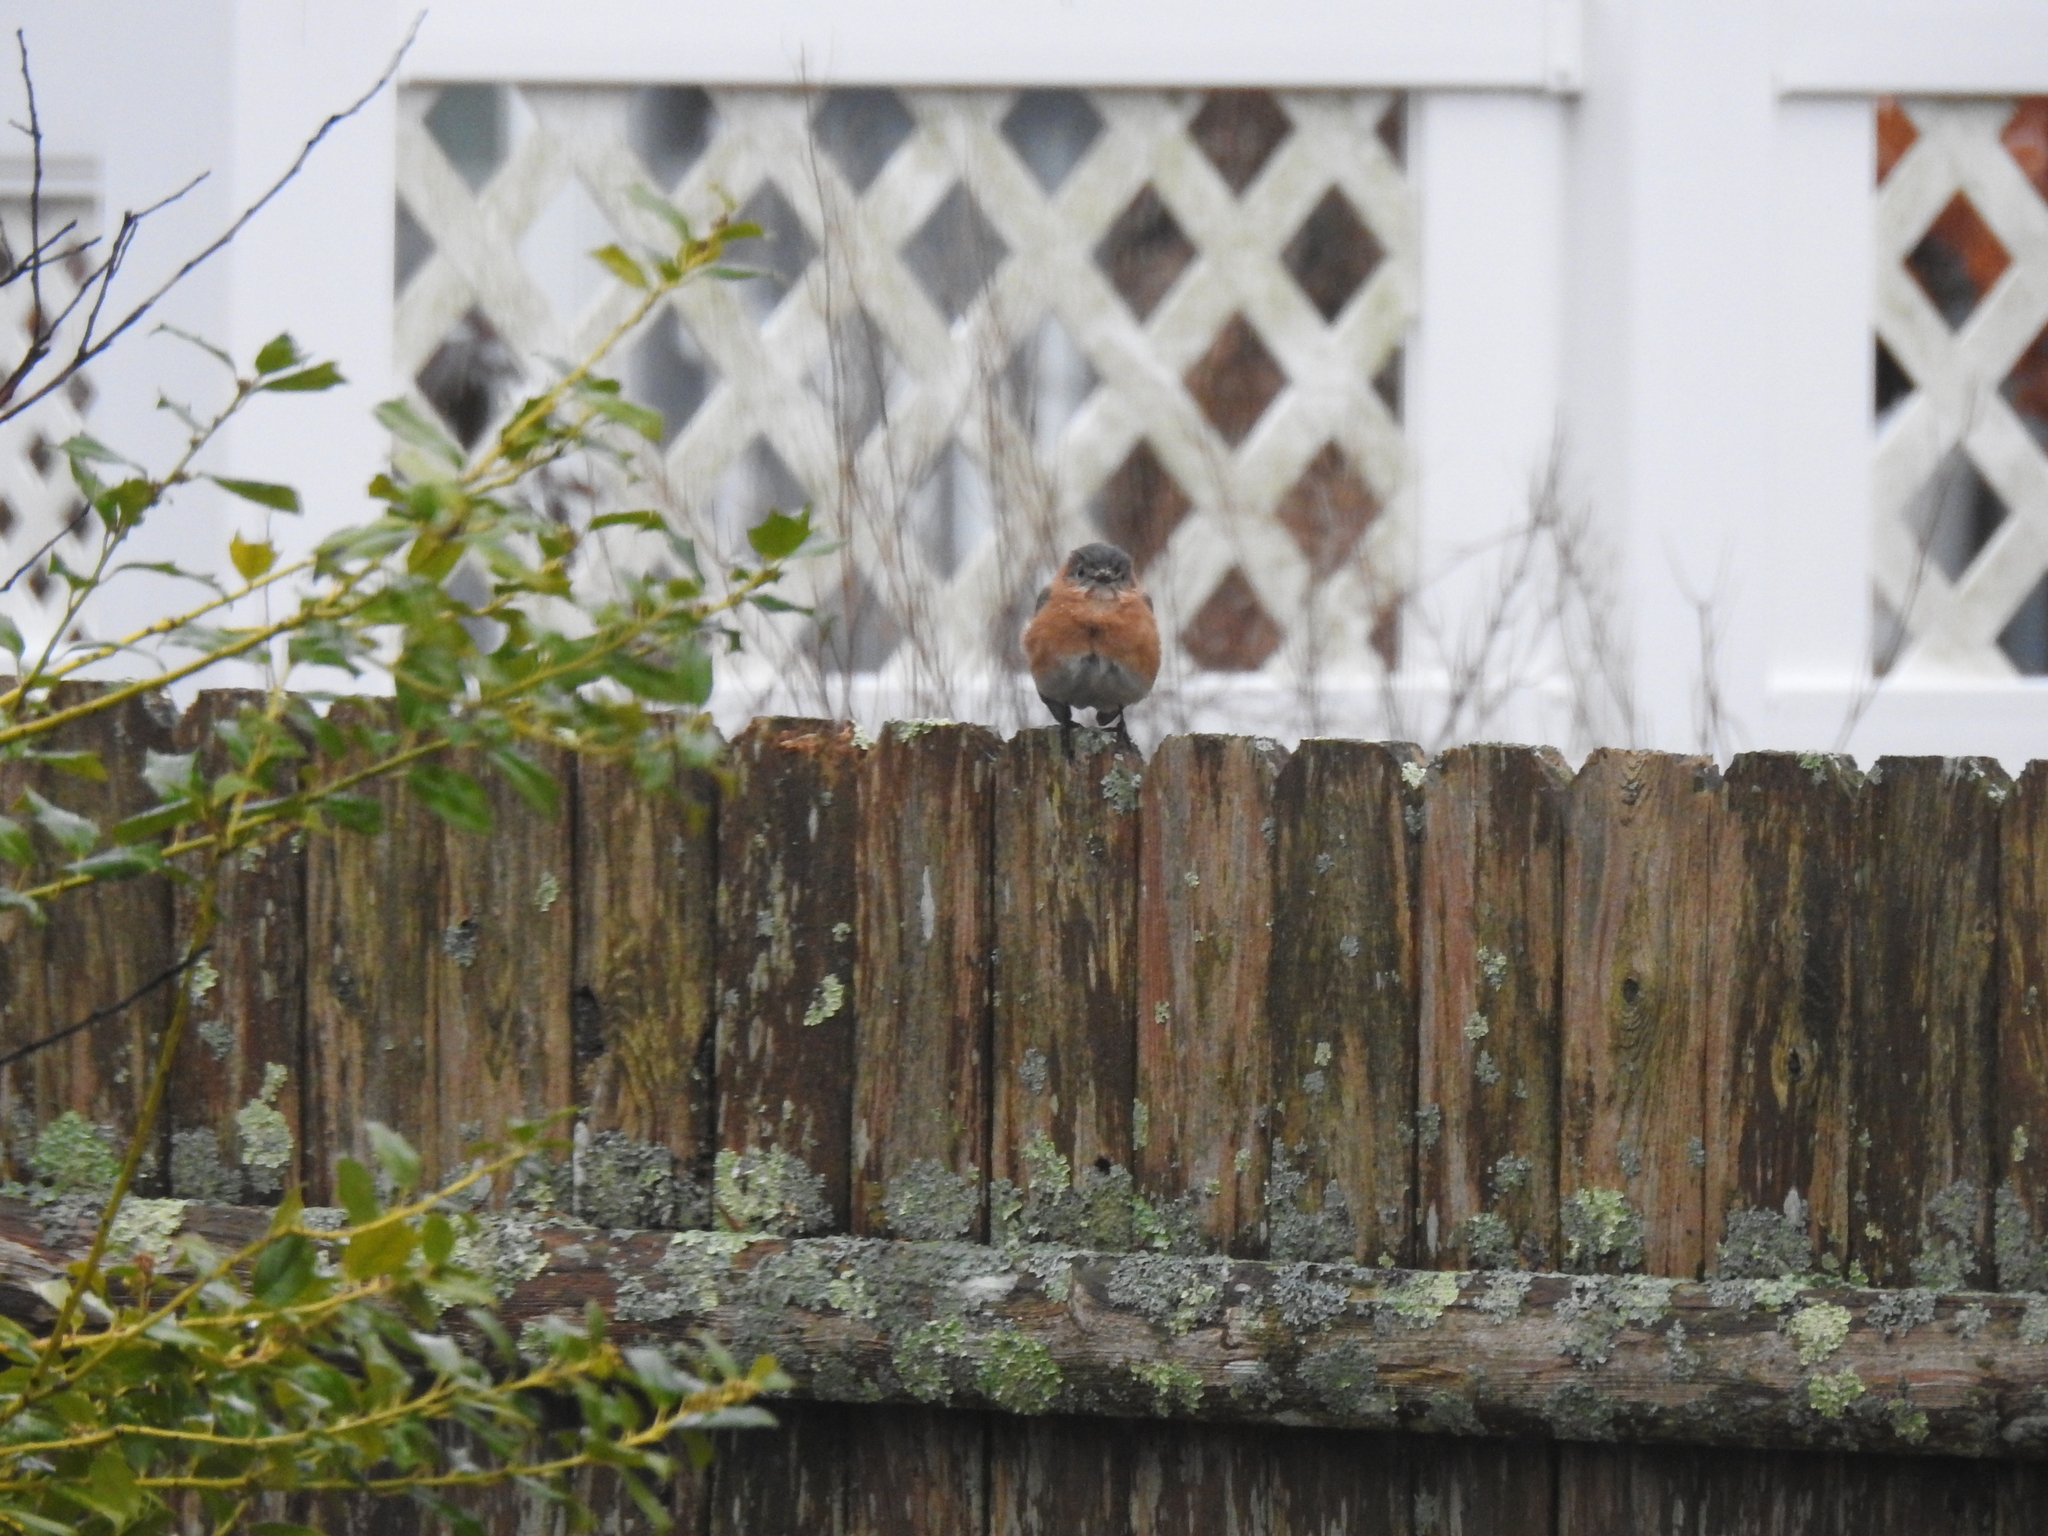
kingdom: Animalia
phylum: Chordata
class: Aves
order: Passeriformes
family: Turdidae
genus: Sialia
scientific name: Sialia sialis
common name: Eastern bluebird
